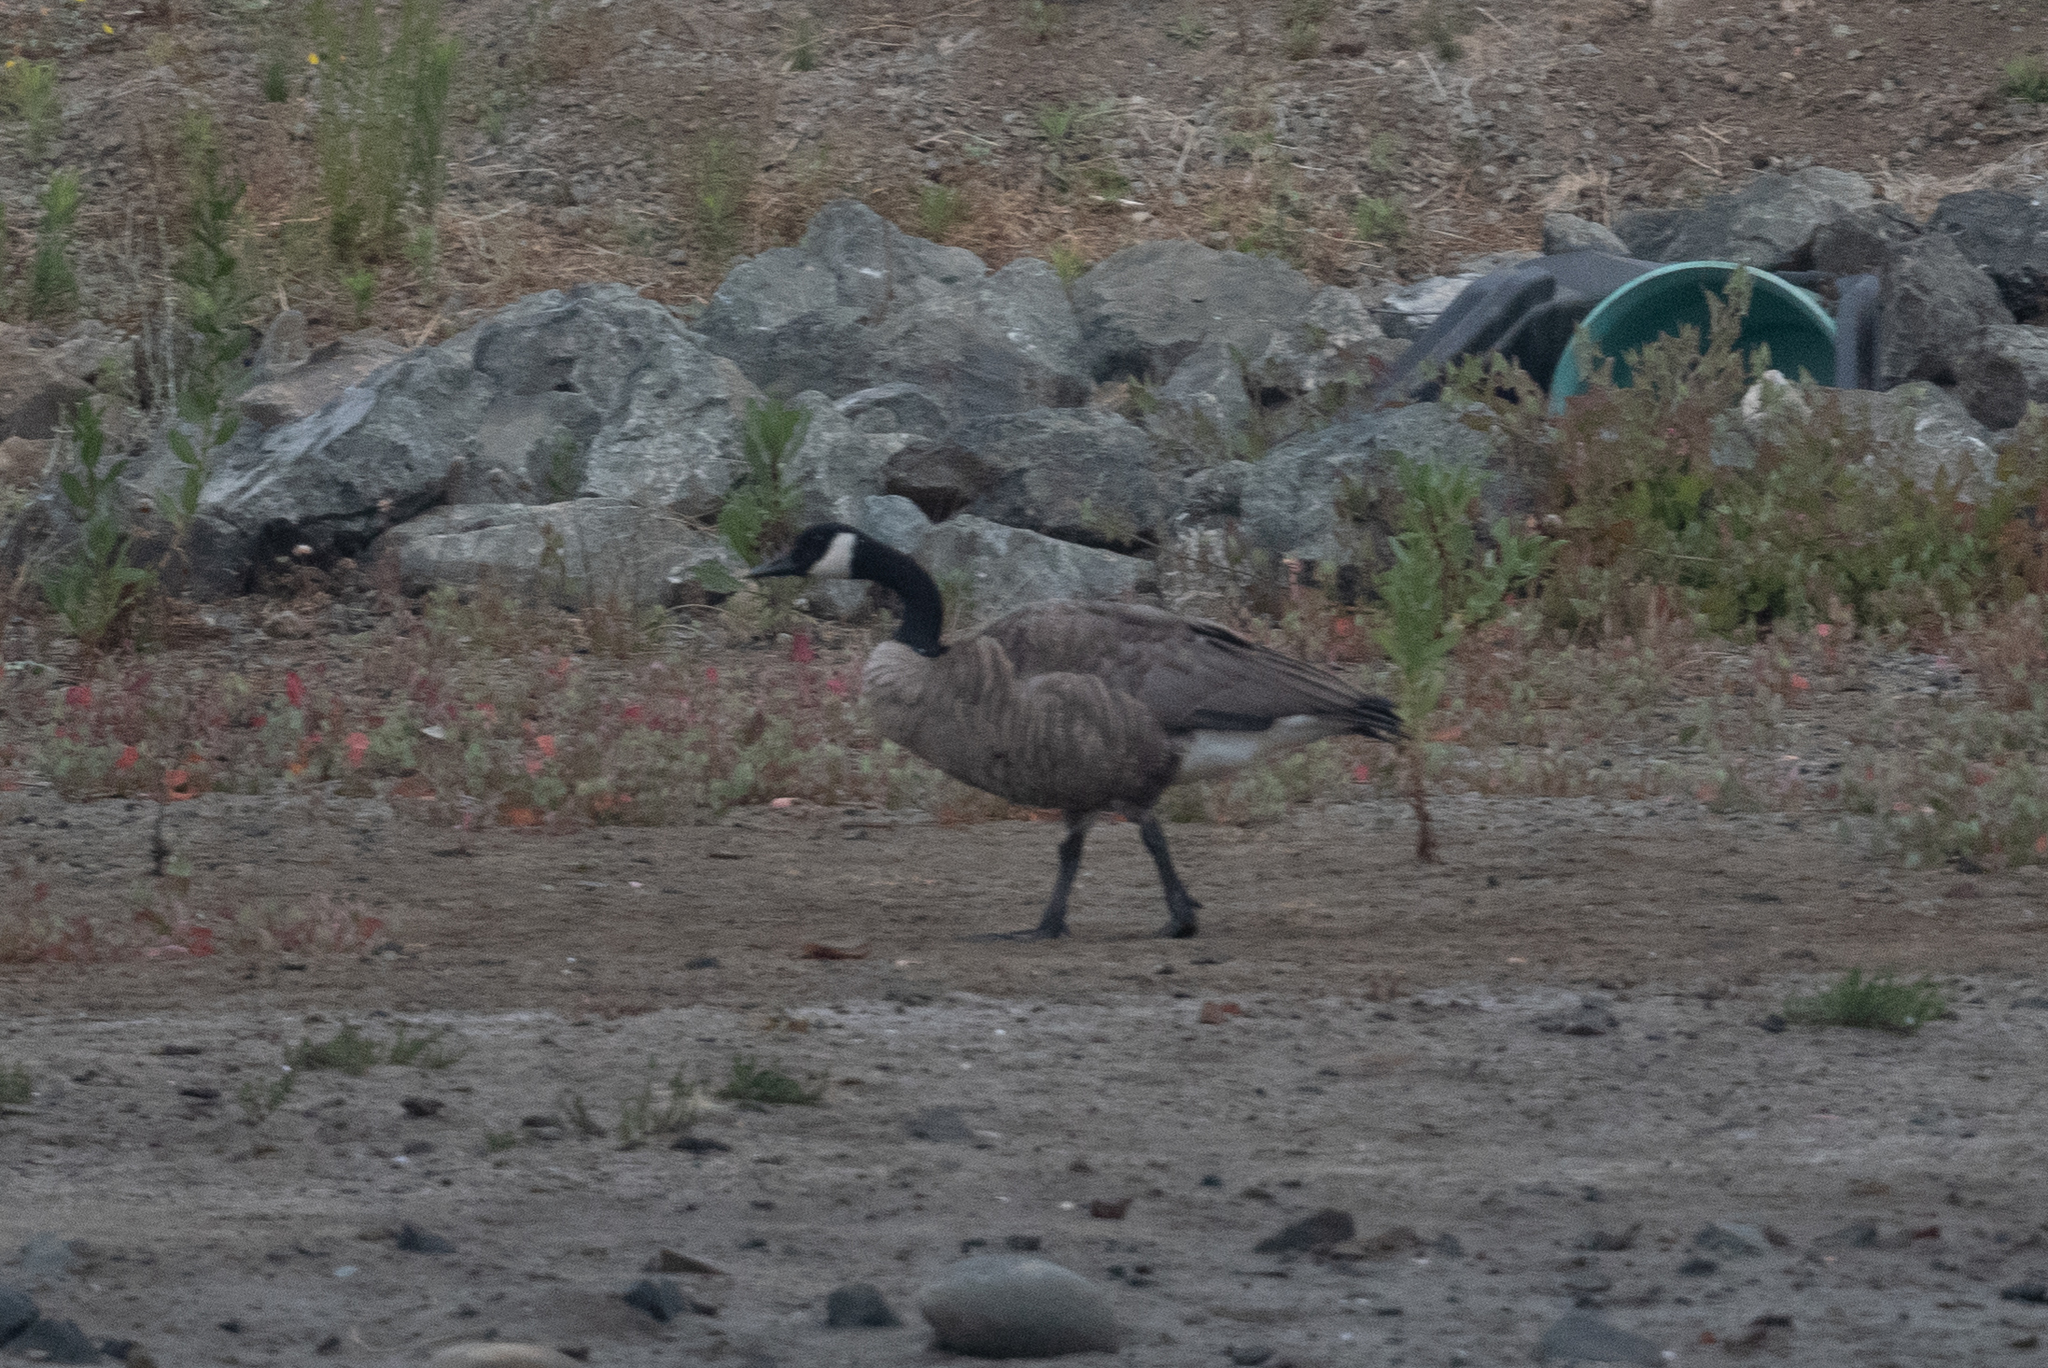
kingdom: Animalia
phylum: Chordata
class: Aves
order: Anseriformes
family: Anatidae
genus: Branta
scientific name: Branta canadensis
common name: Canada goose
